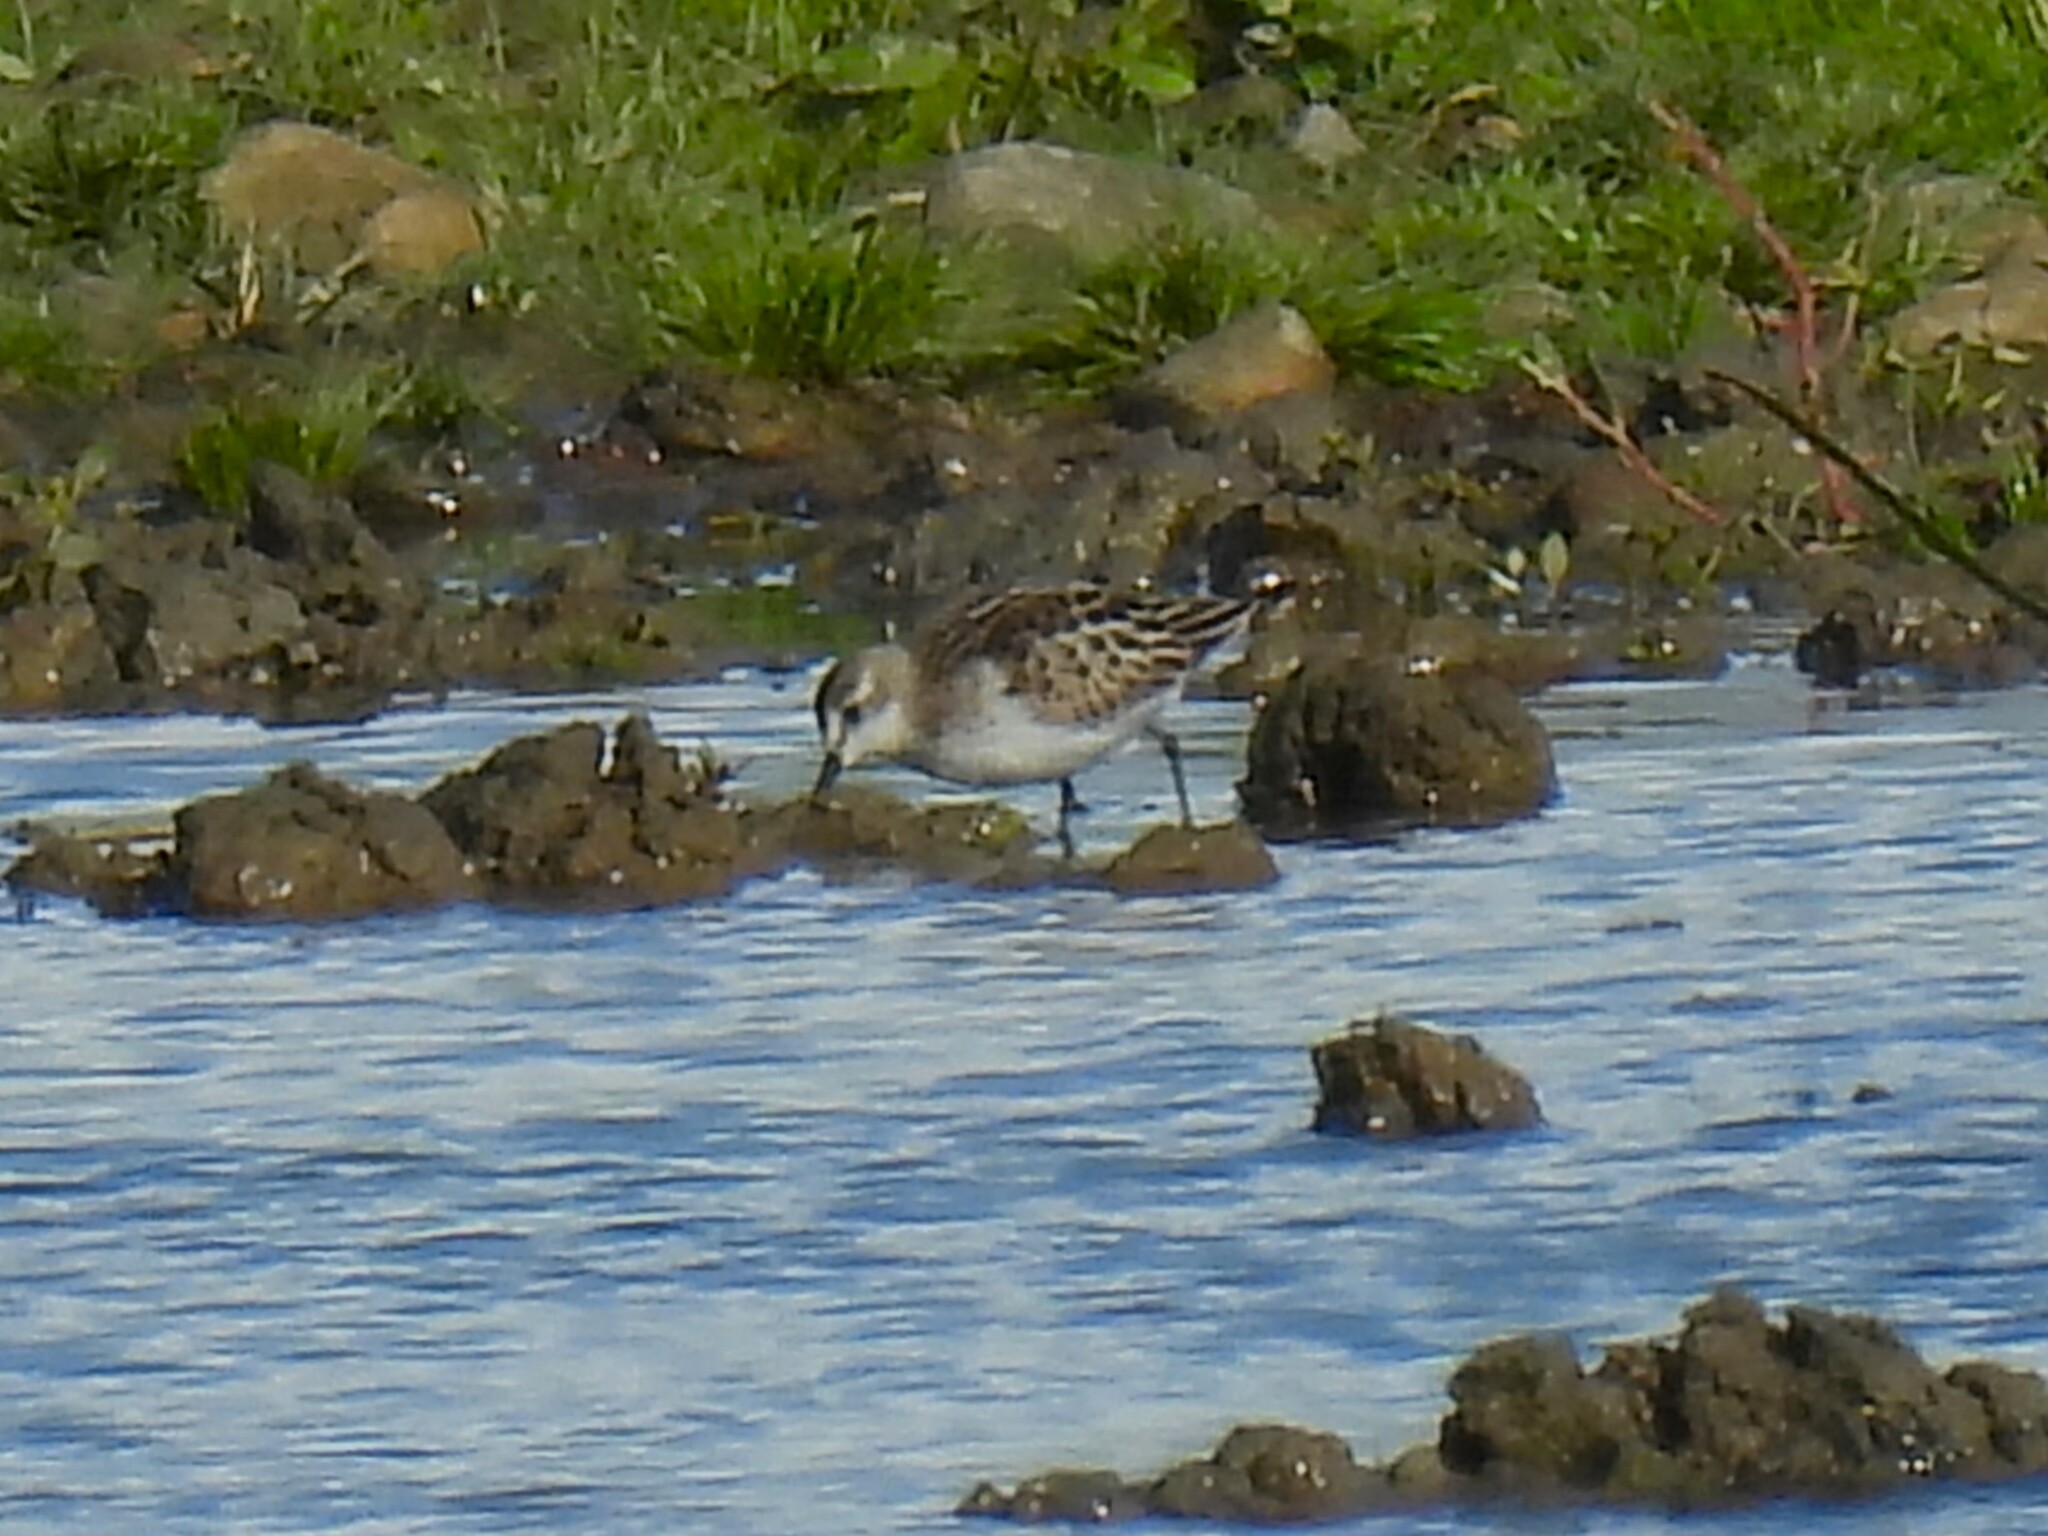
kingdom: Animalia
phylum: Chordata
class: Aves
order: Charadriiformes
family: Scolopacidae
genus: Calidris
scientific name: Calidris minuta
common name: Little stint
